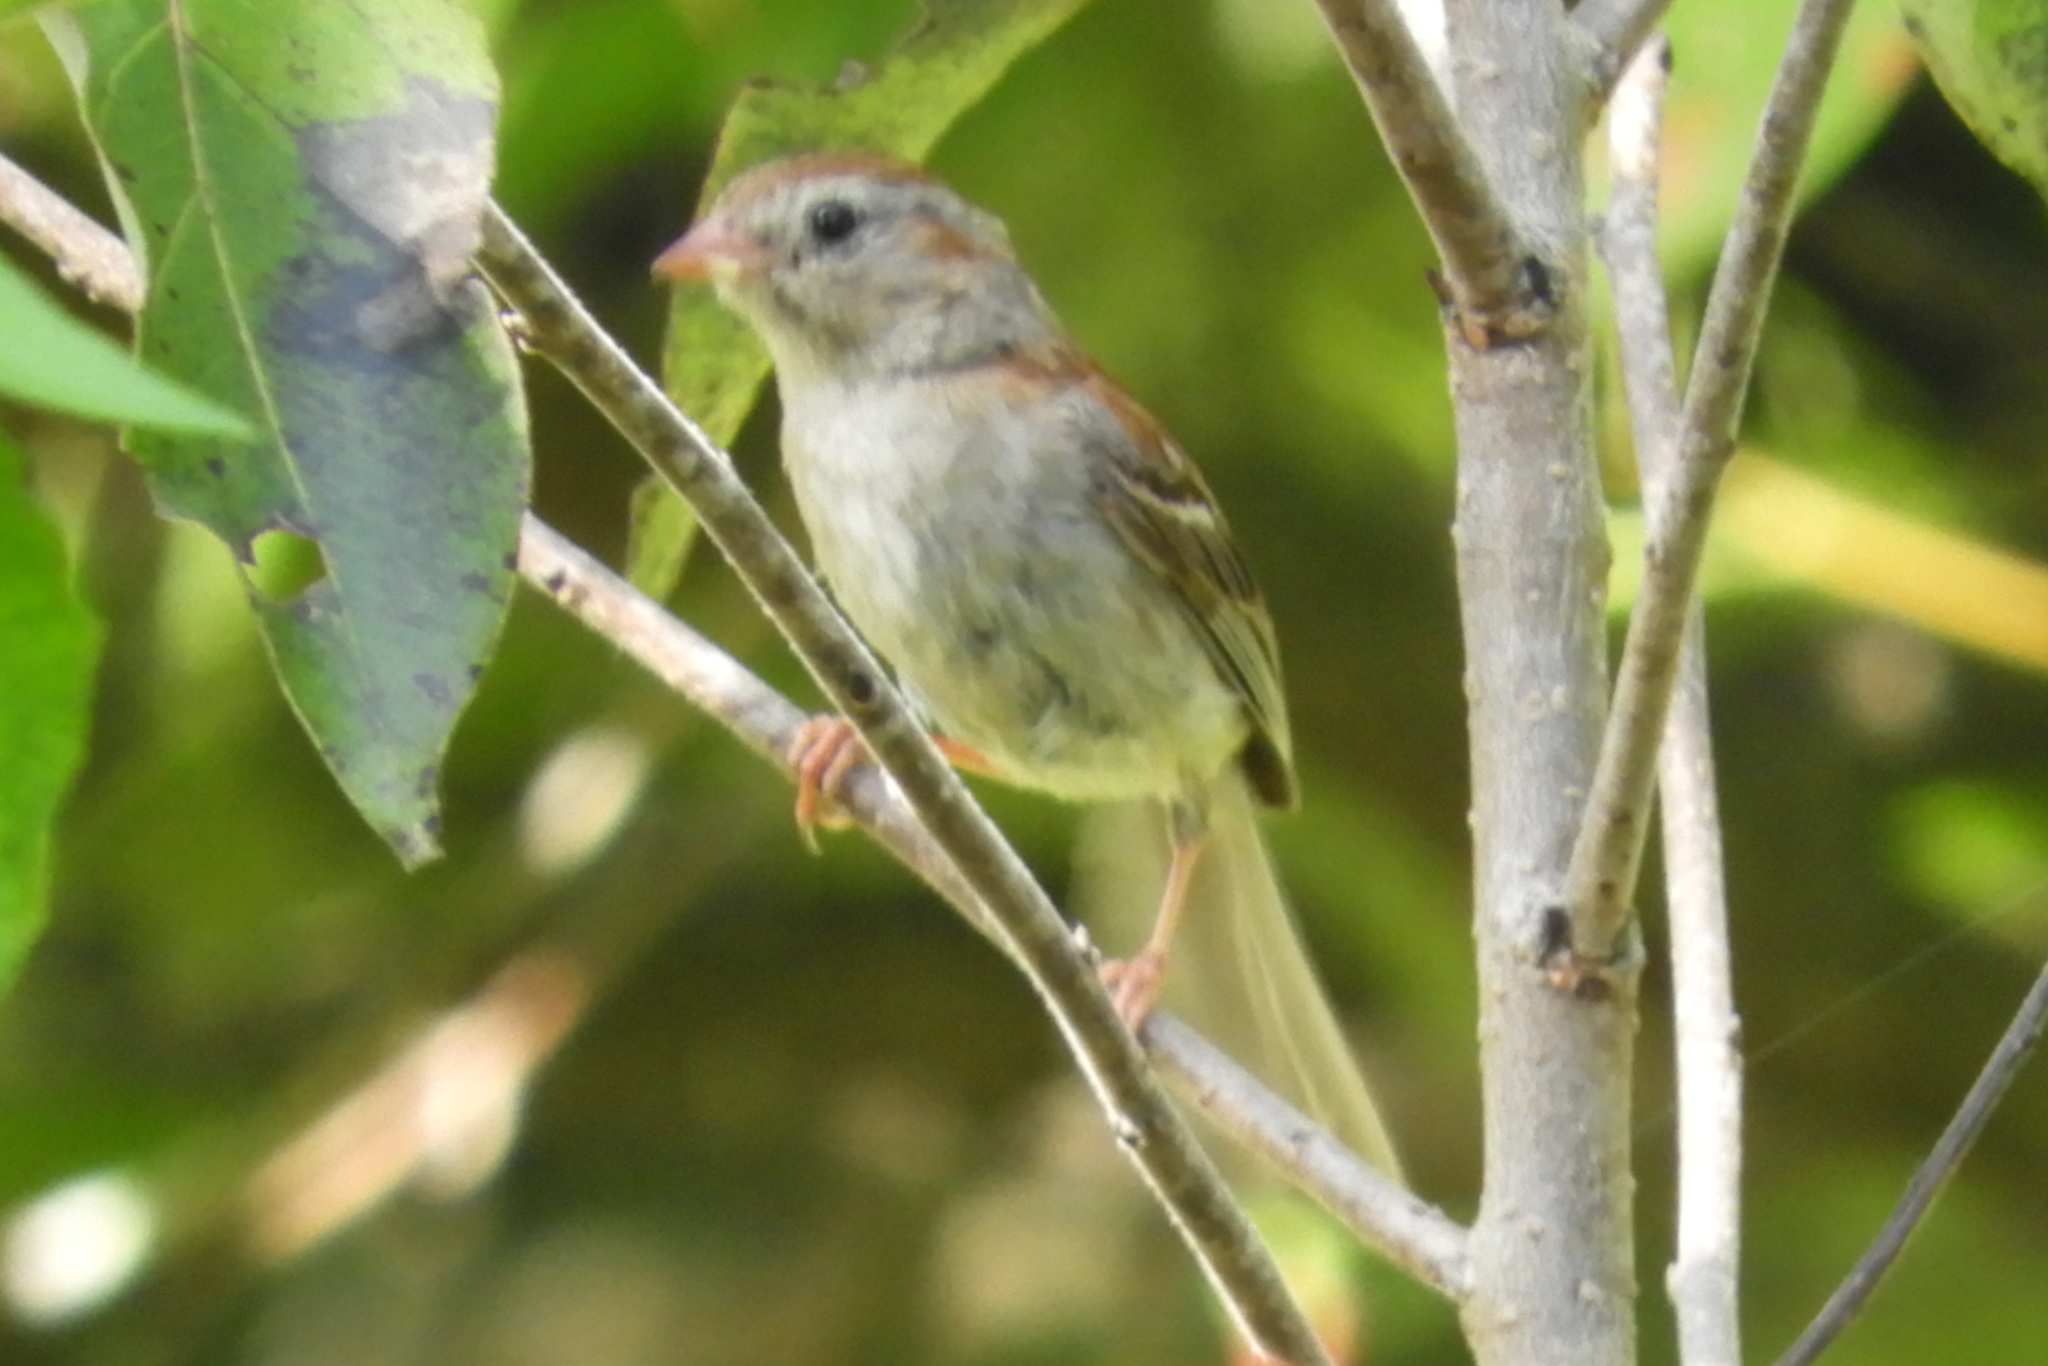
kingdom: Animalia
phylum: Chordata
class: Aves
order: Passeriformes
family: Passerellidae
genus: Spizella
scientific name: Spizella pusilla
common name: Field sparrow
